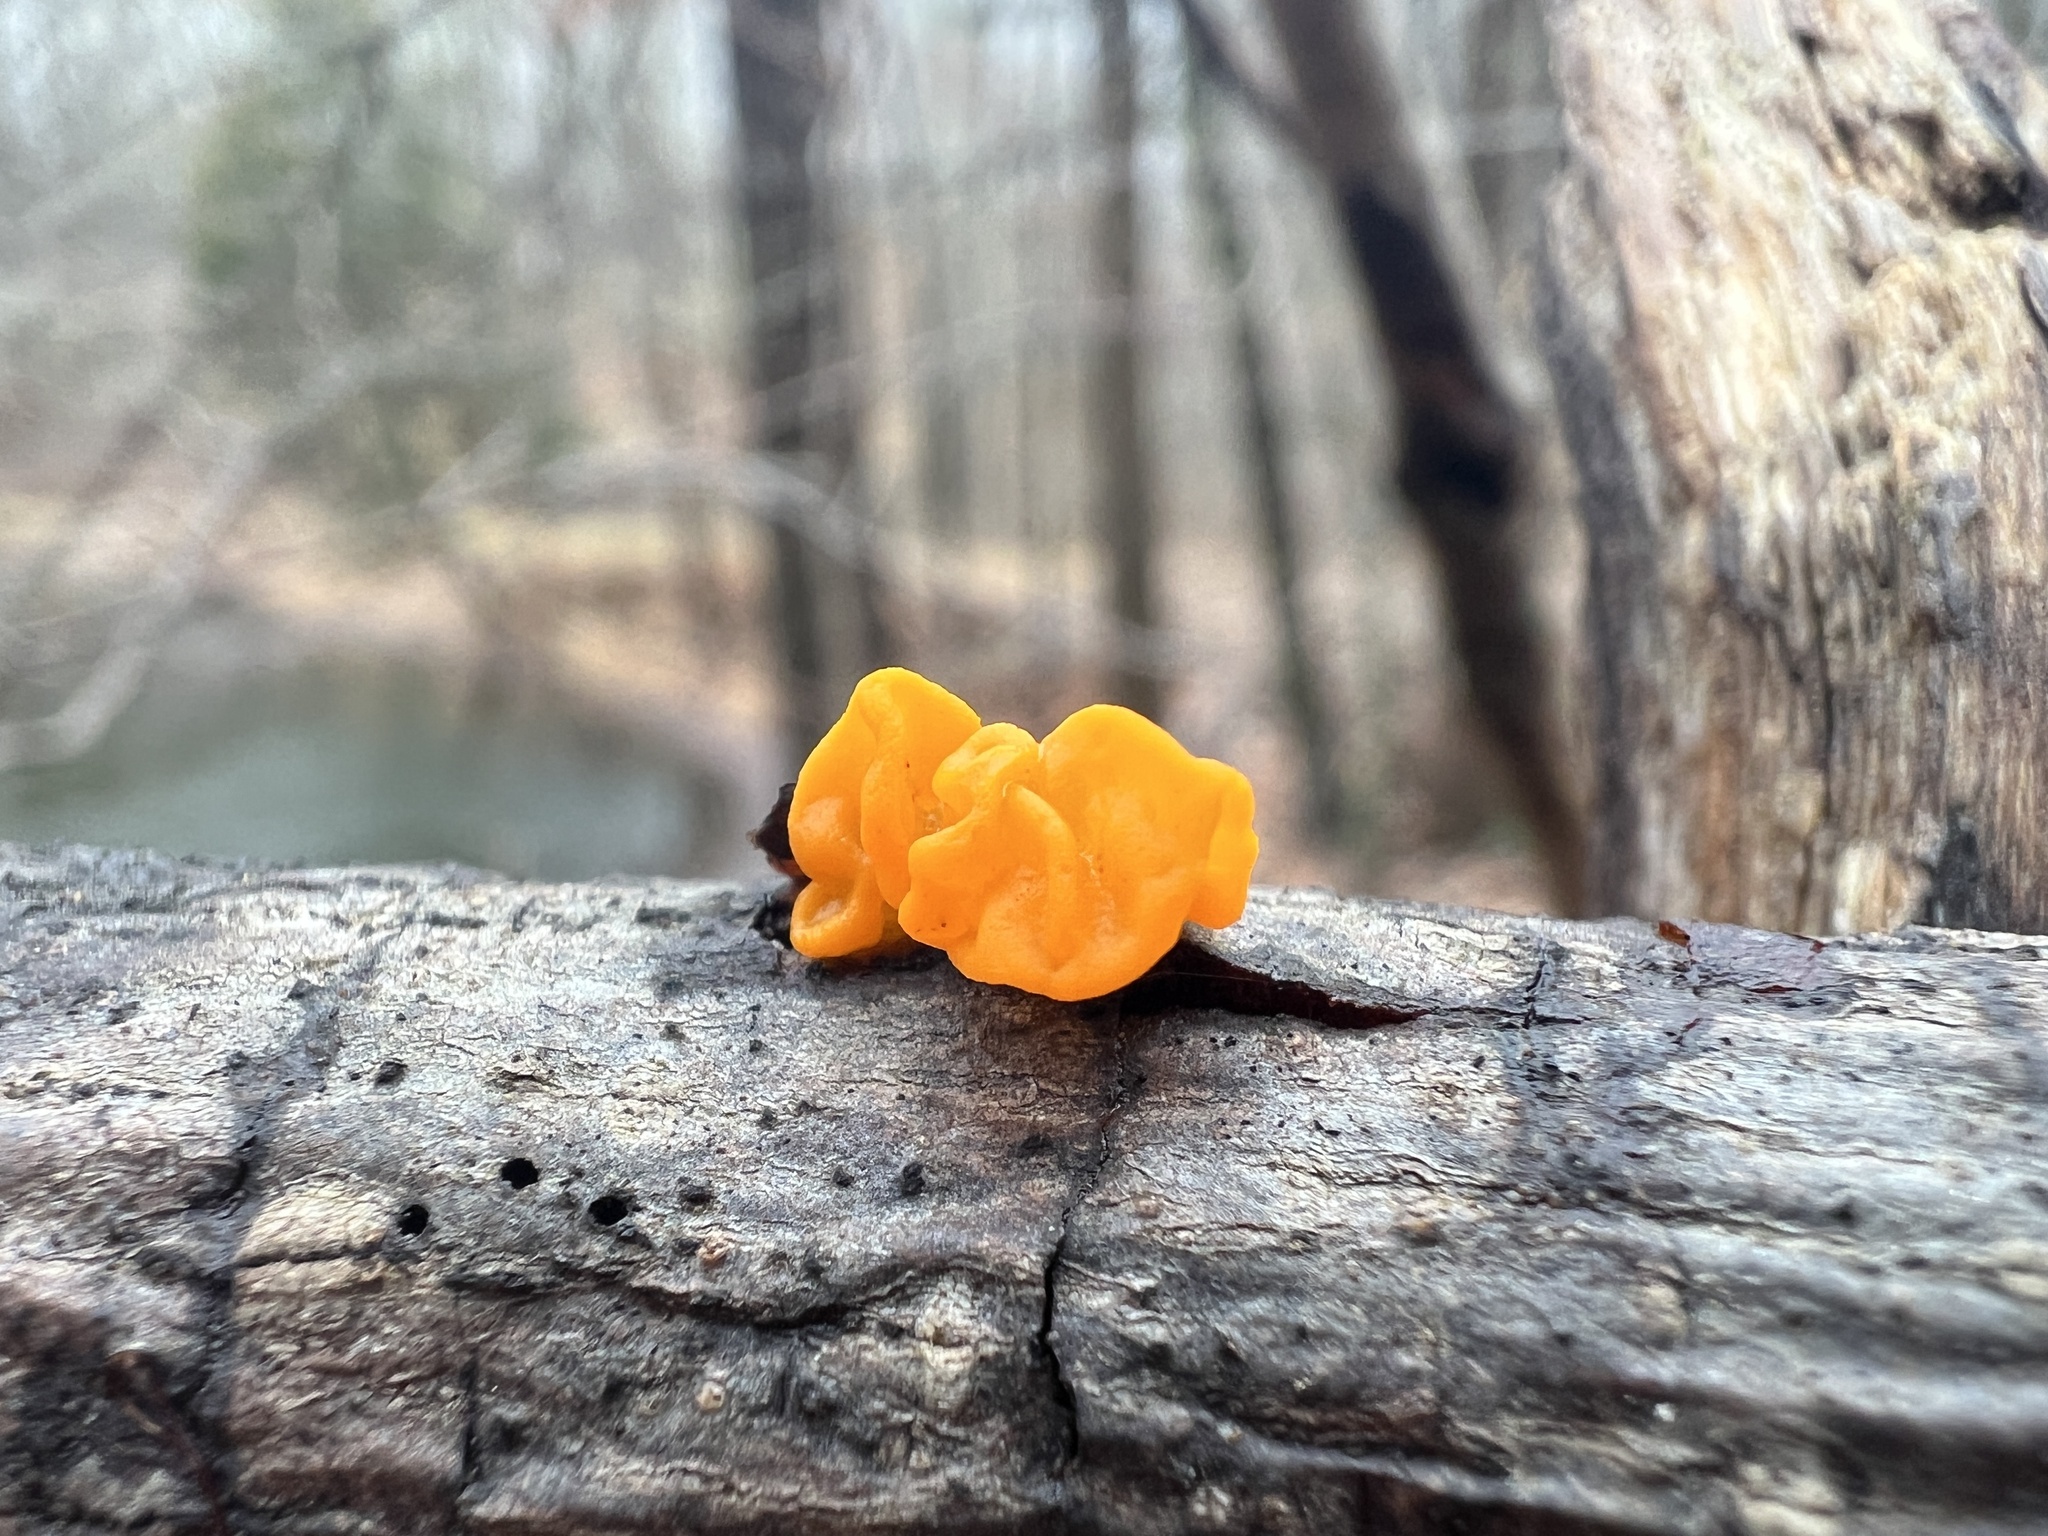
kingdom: Fungi
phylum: Basidiomycota
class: Dacrymycetes
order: Dacrymycetales
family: Dacrymycetaceae
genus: Dacrymyces
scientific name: Dacrymyces chrysospermus
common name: Orange jelly spot
